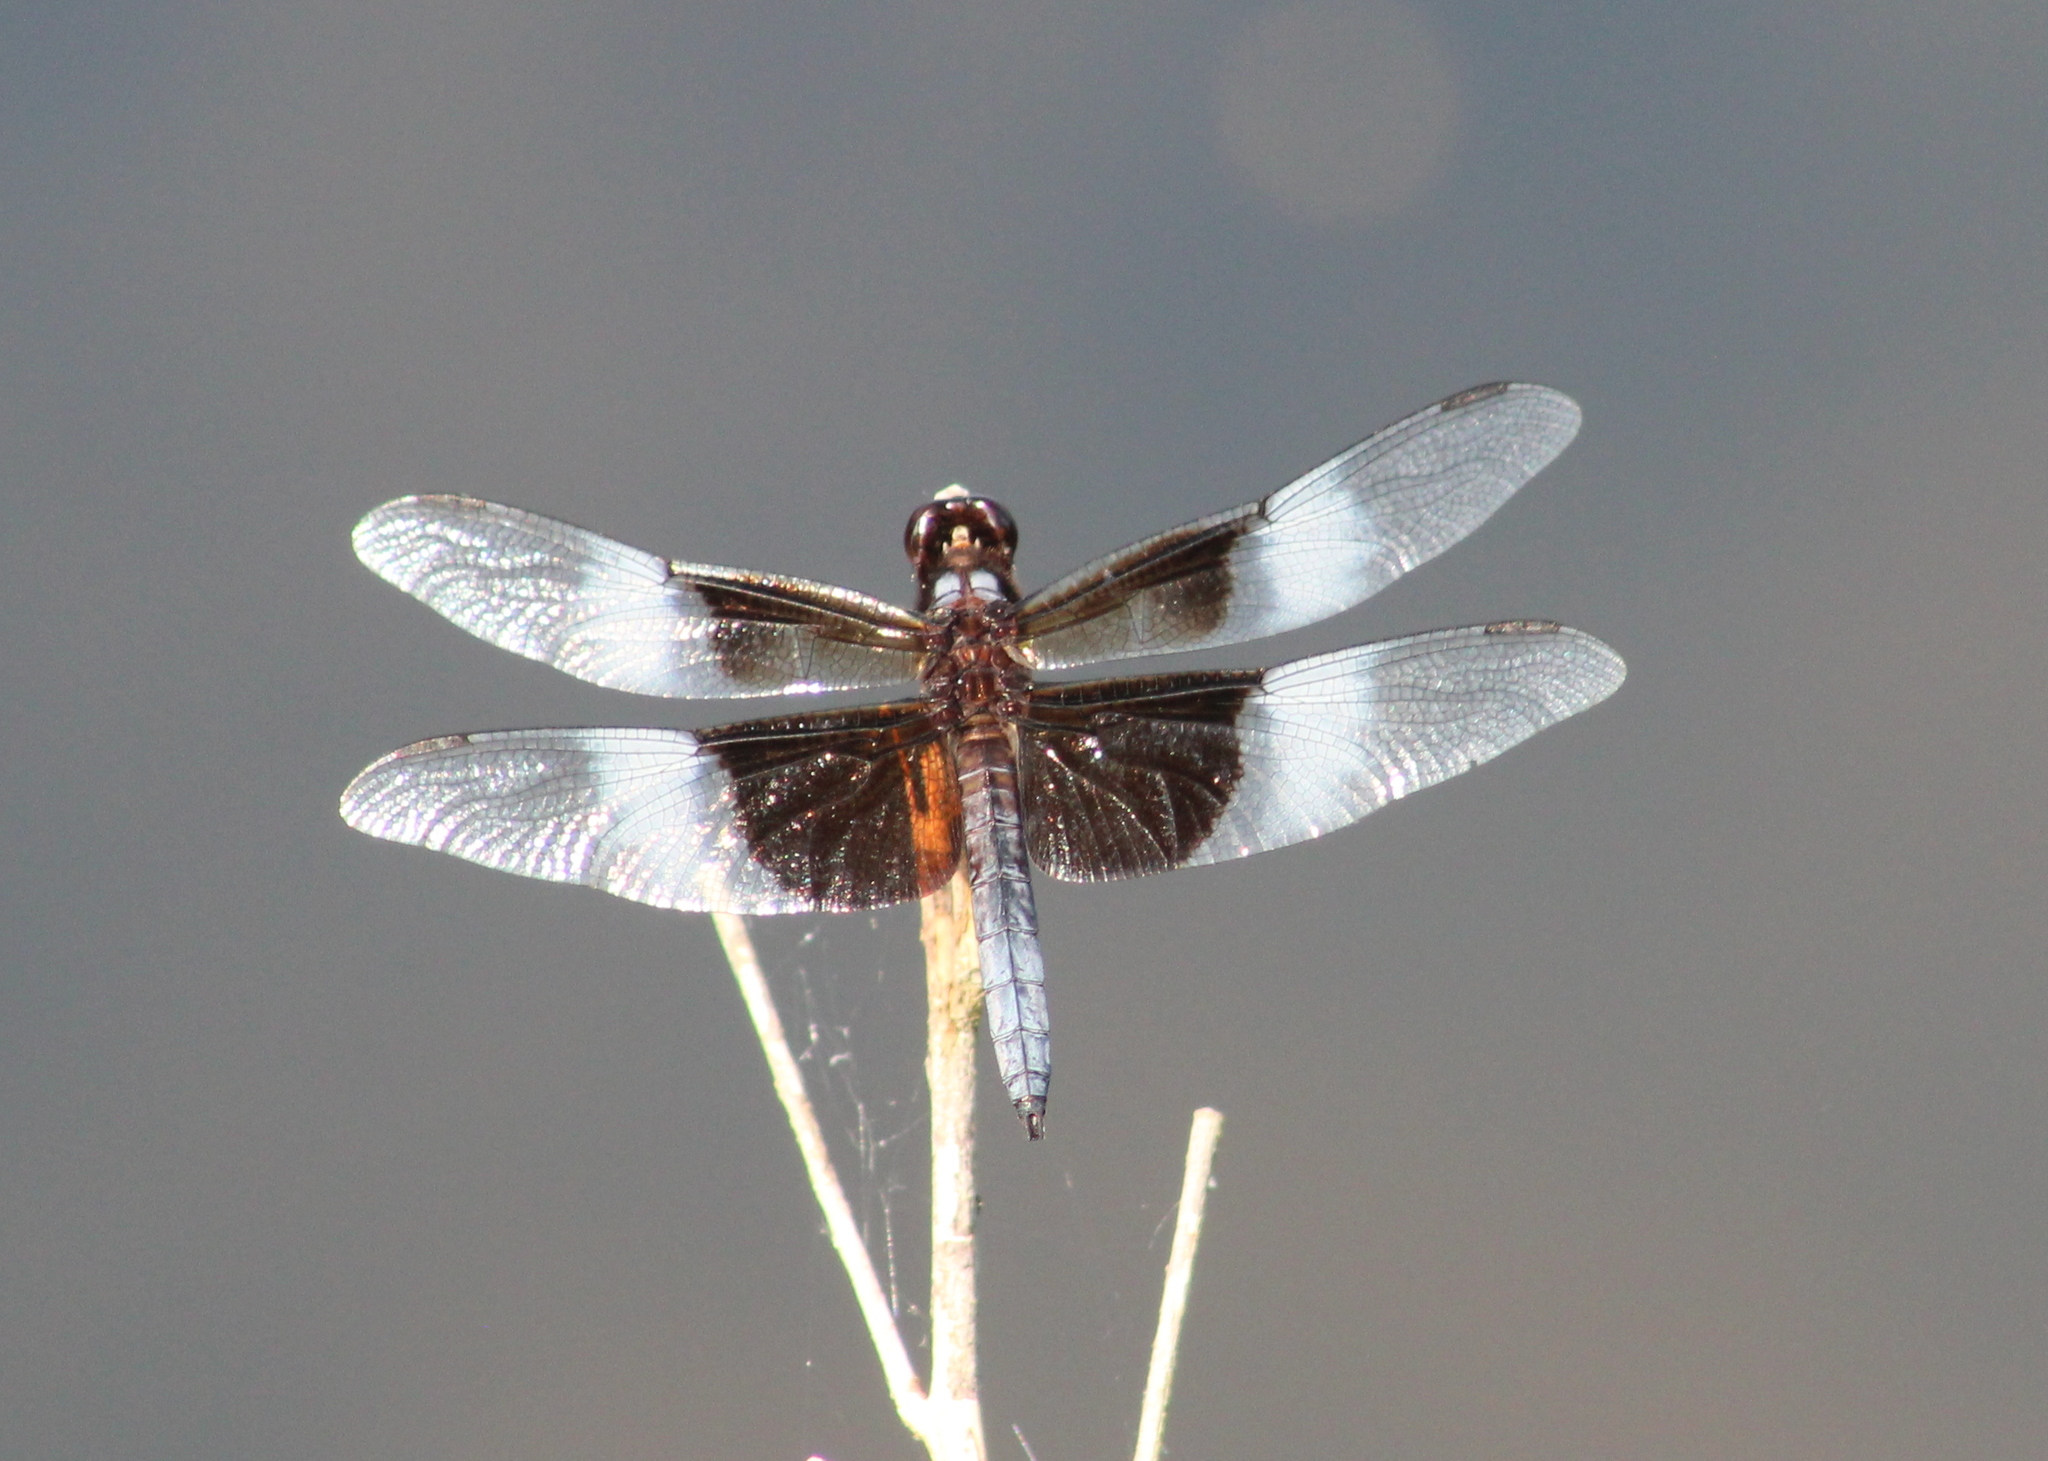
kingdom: Animalia
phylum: Arthropoda
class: Insecta
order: Odonata
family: Libellulidae
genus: Libellula
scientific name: Libellula luctuosa
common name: Widow skimmer
